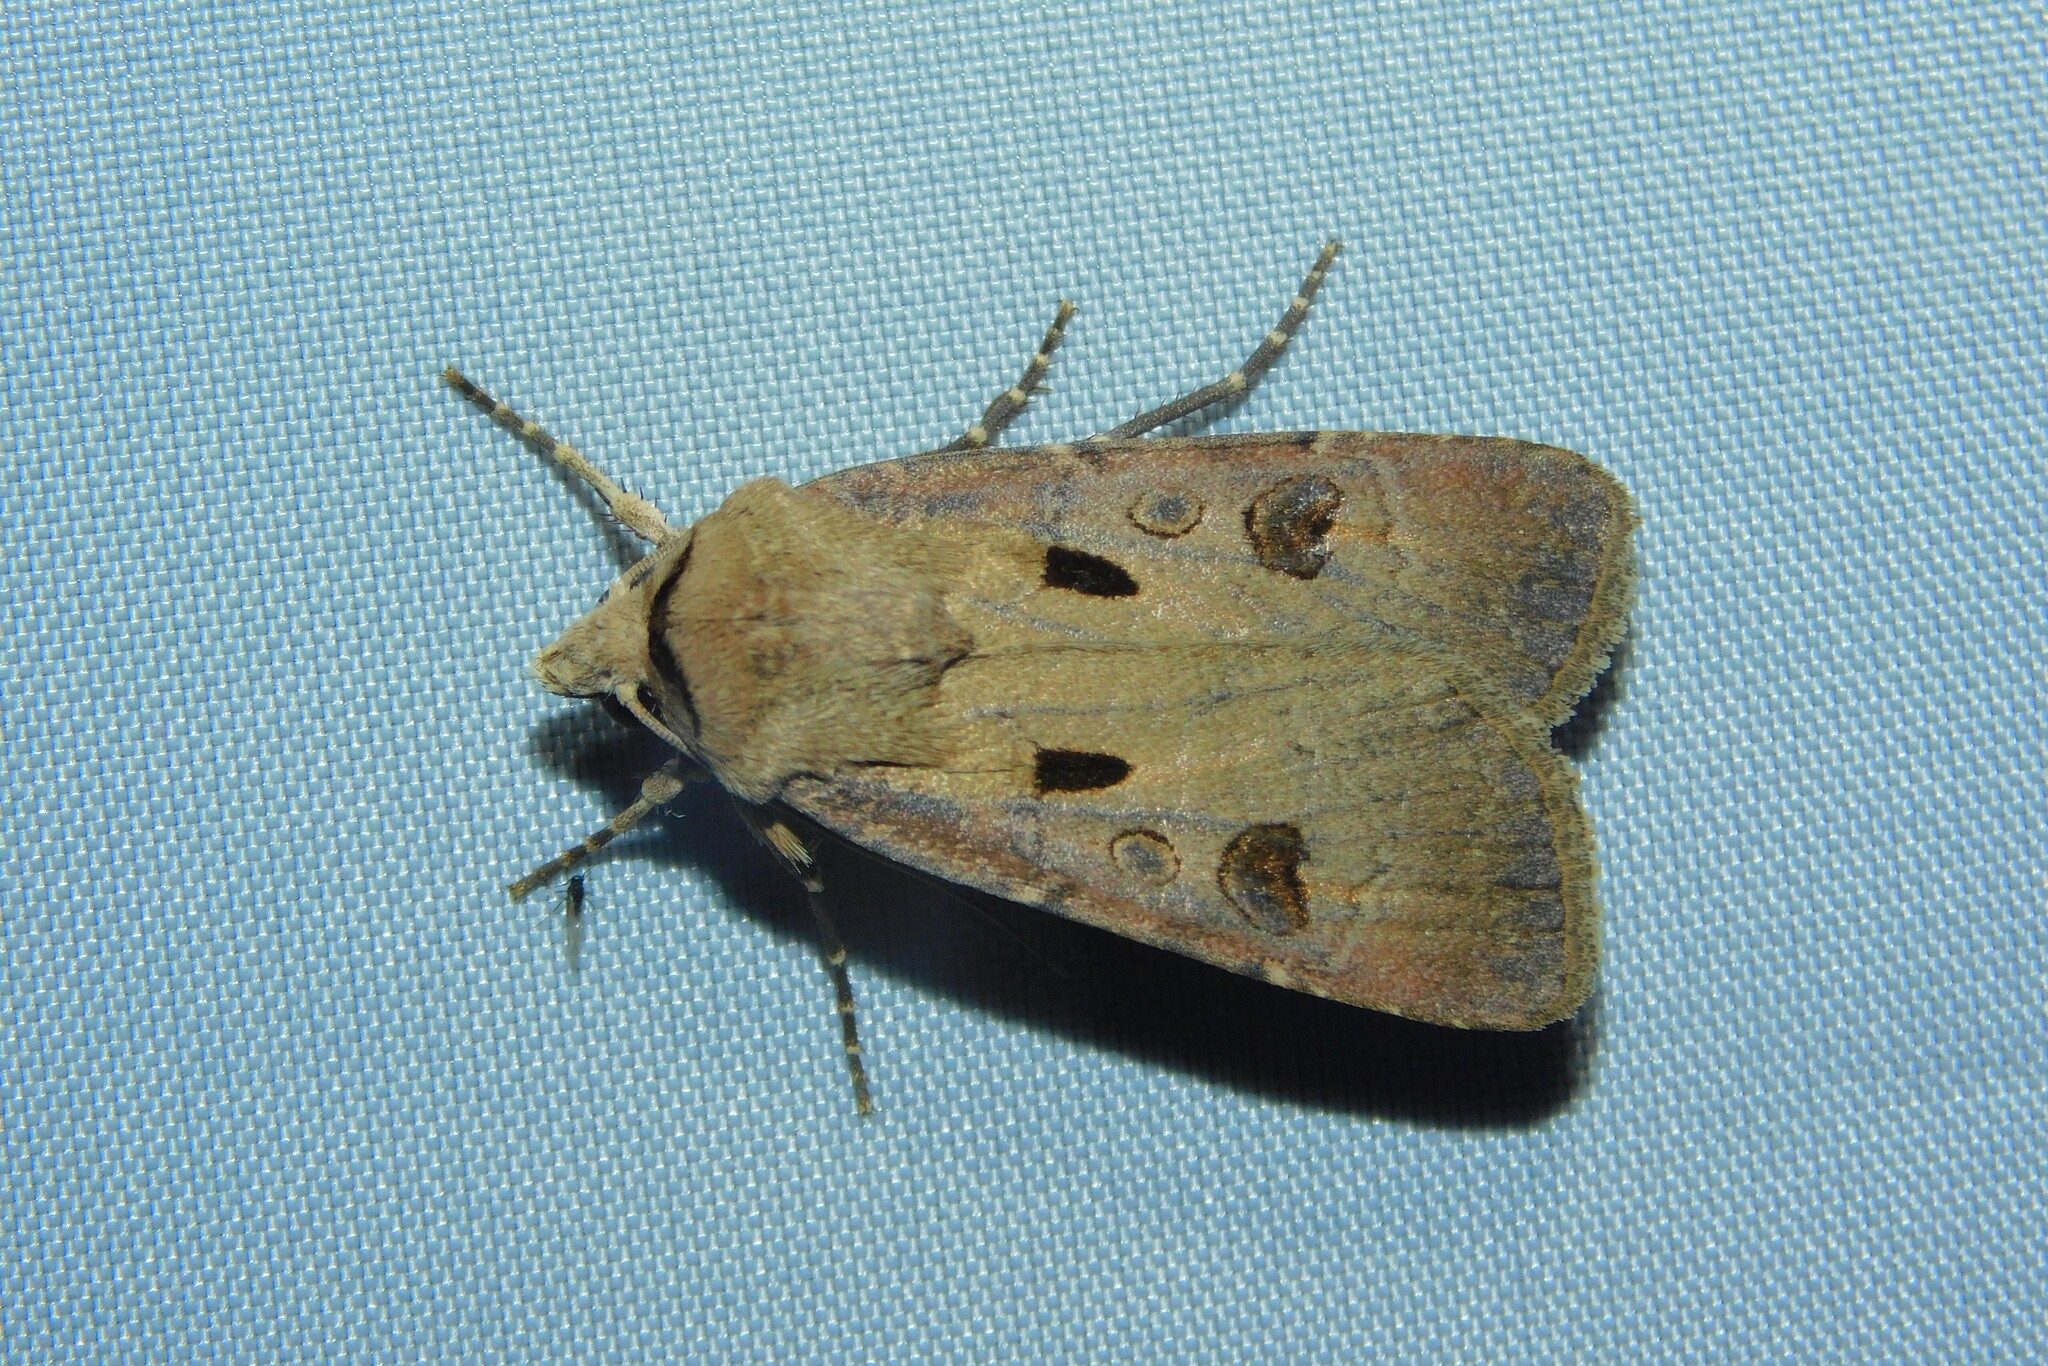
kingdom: Animalia
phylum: Arthropoda
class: Insecta
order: Lepidoptera
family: Noctuidae
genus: Agrotis
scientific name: Agrotis exclamationis
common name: Heart and dart
